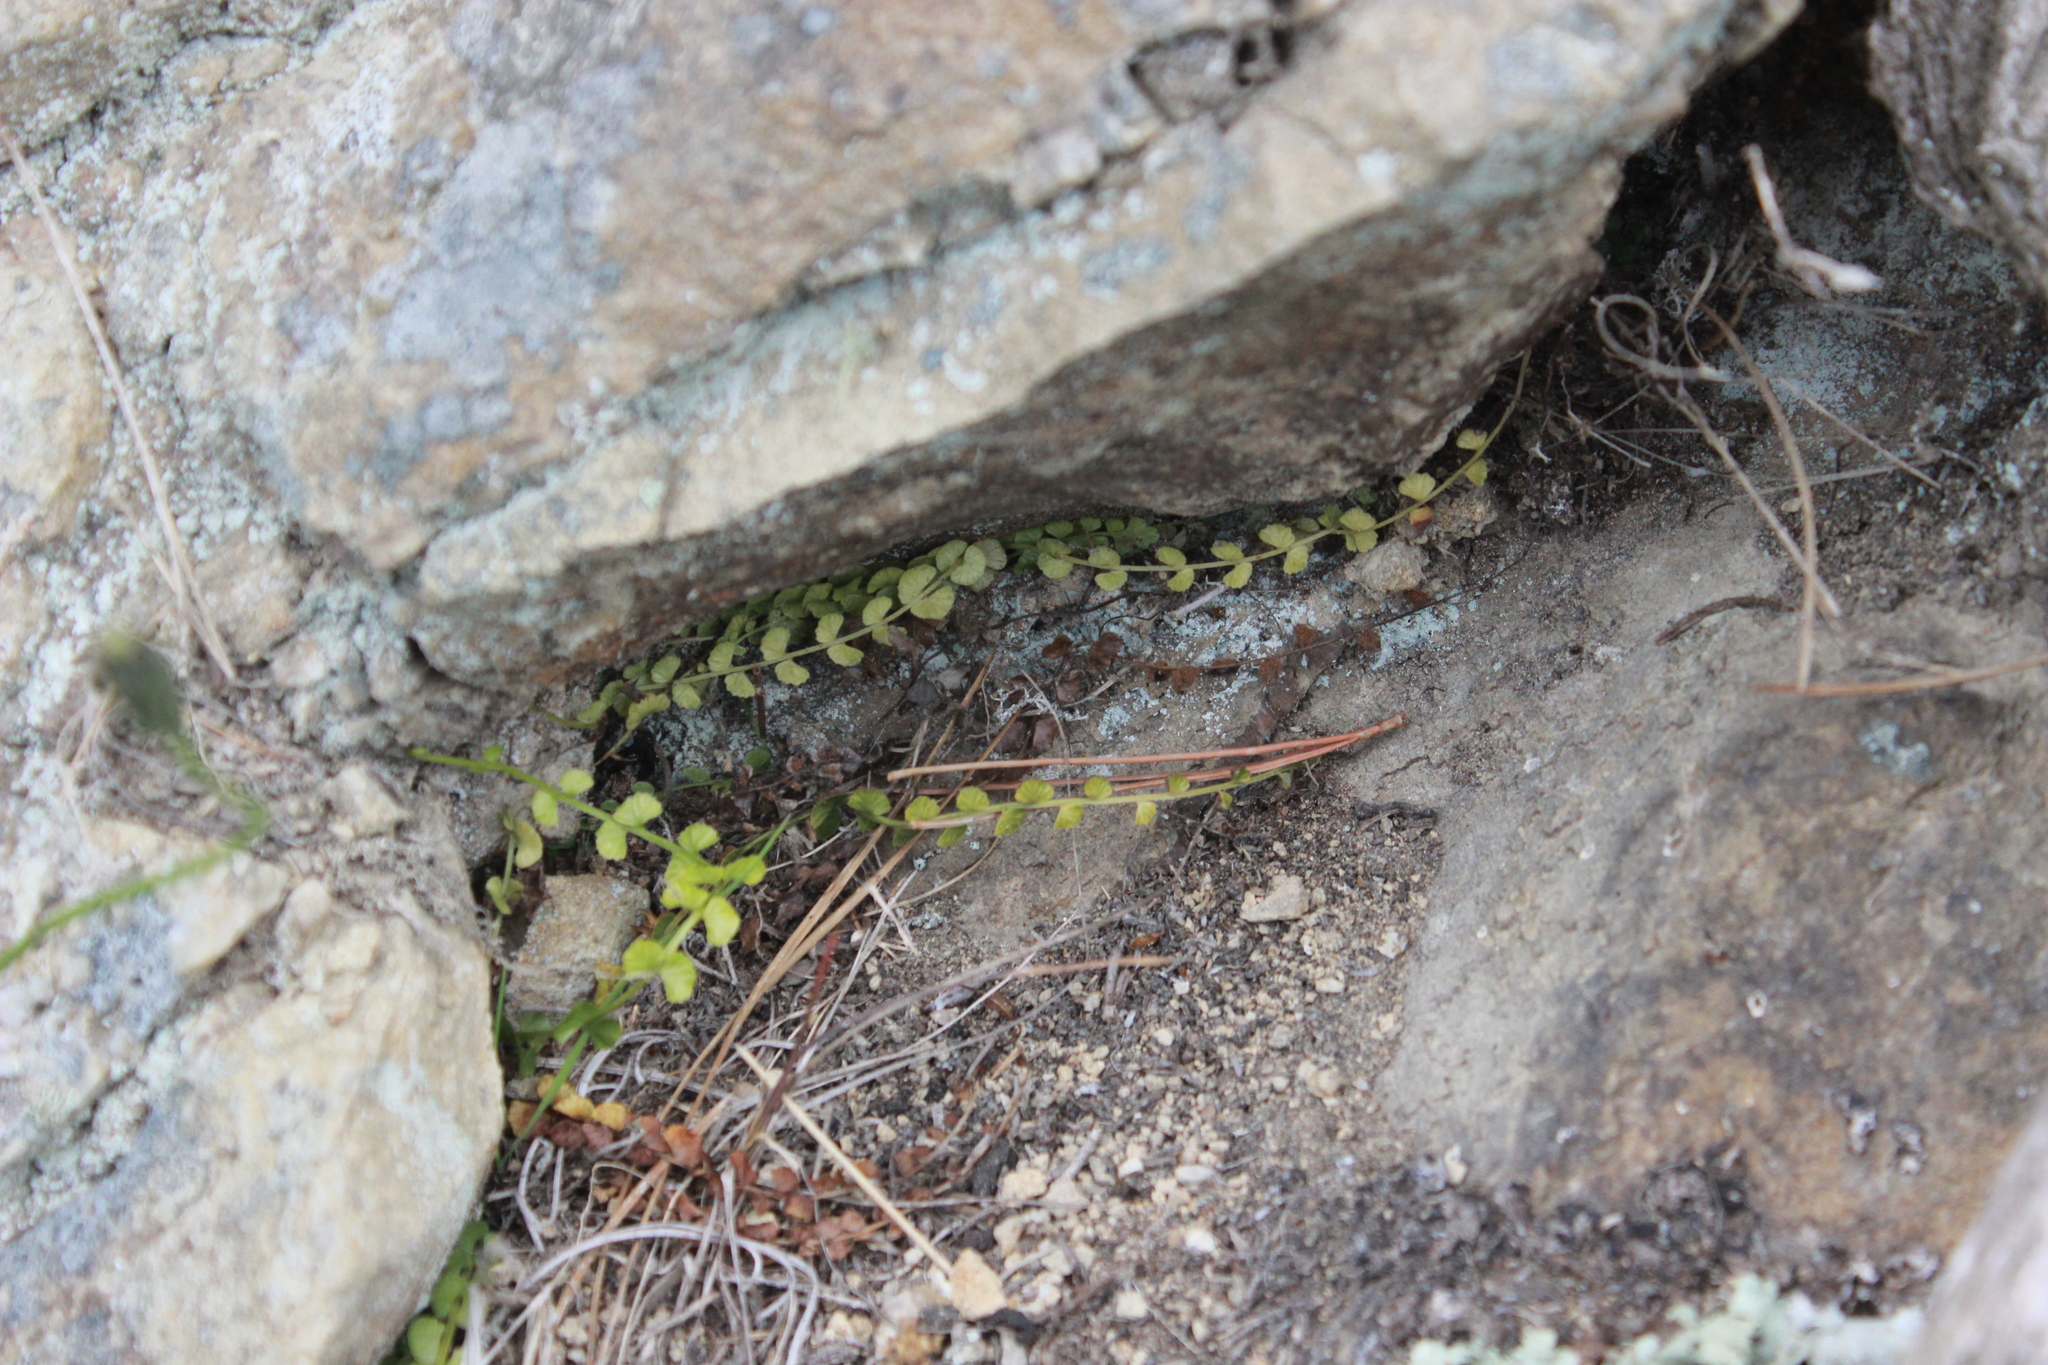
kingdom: Plantae
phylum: Tracheophyta
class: Polypodiopsida
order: Polypodiales
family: Aspleniaceae
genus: Asplenium
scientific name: Asplenium flabellifolium
